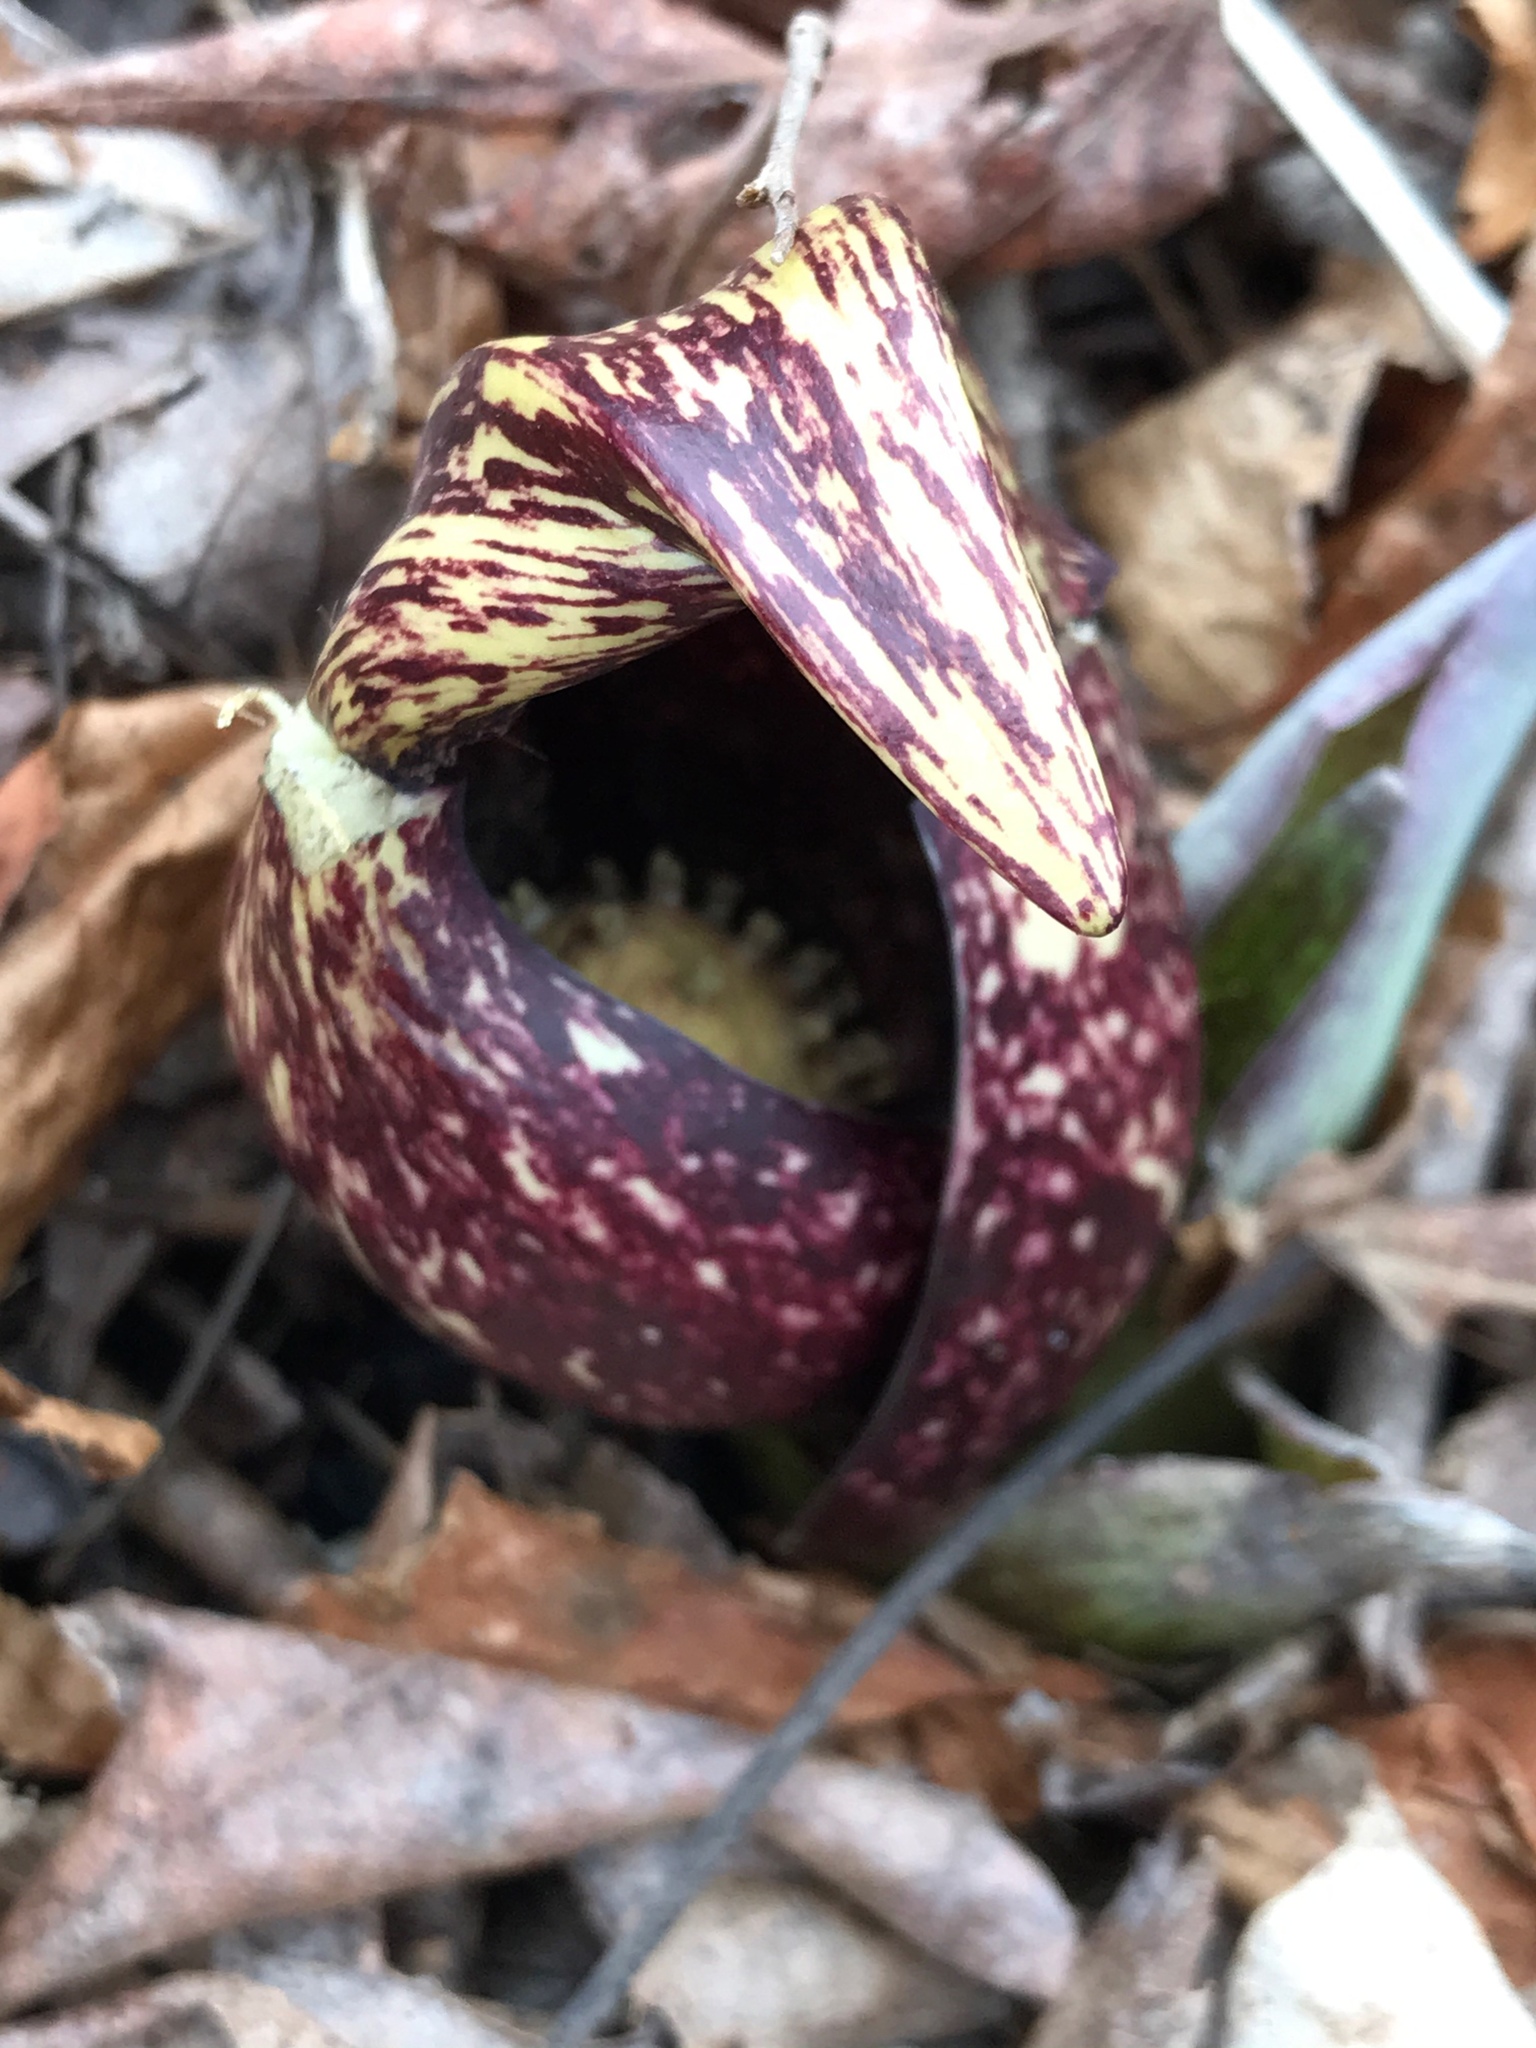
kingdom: Plantae
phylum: Tracheophyta
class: Liliopsida
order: Alismatales
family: Araceae
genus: Symplocarpus
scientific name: Symplocarpus foetidus
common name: Eastern skunk cabbage
